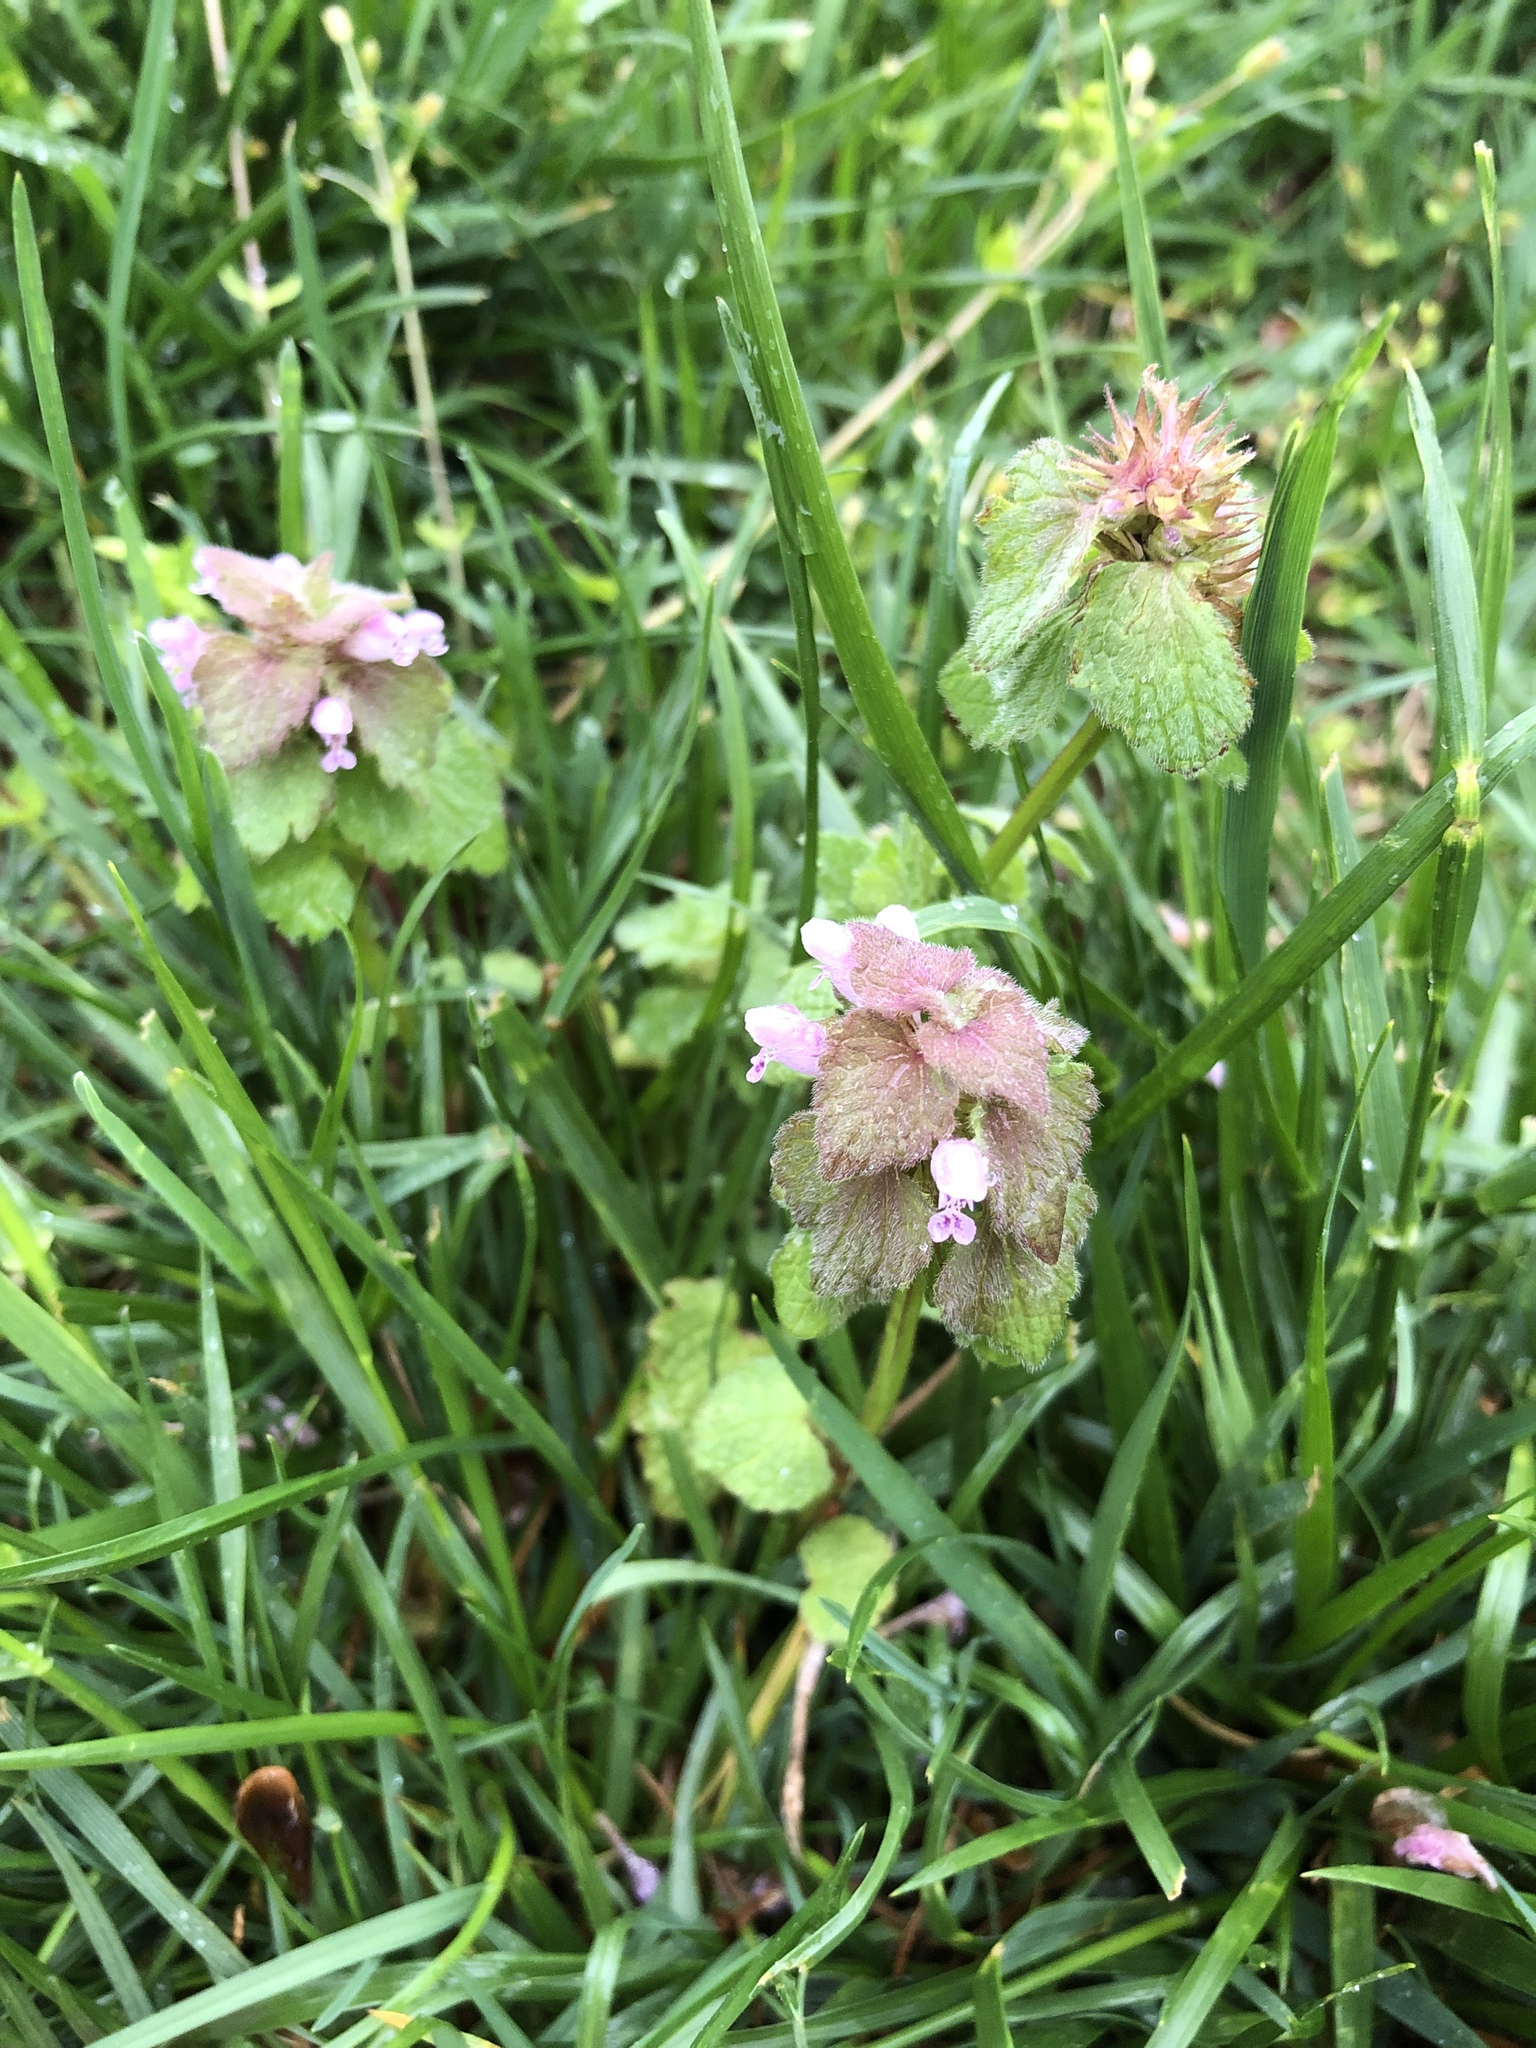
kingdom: Plantae
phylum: Tracheophyta
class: Magnoliopsida
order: Lamiales
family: Lamiaceae
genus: Lamium
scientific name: Lamium purpureum
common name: Red dead-nettle
